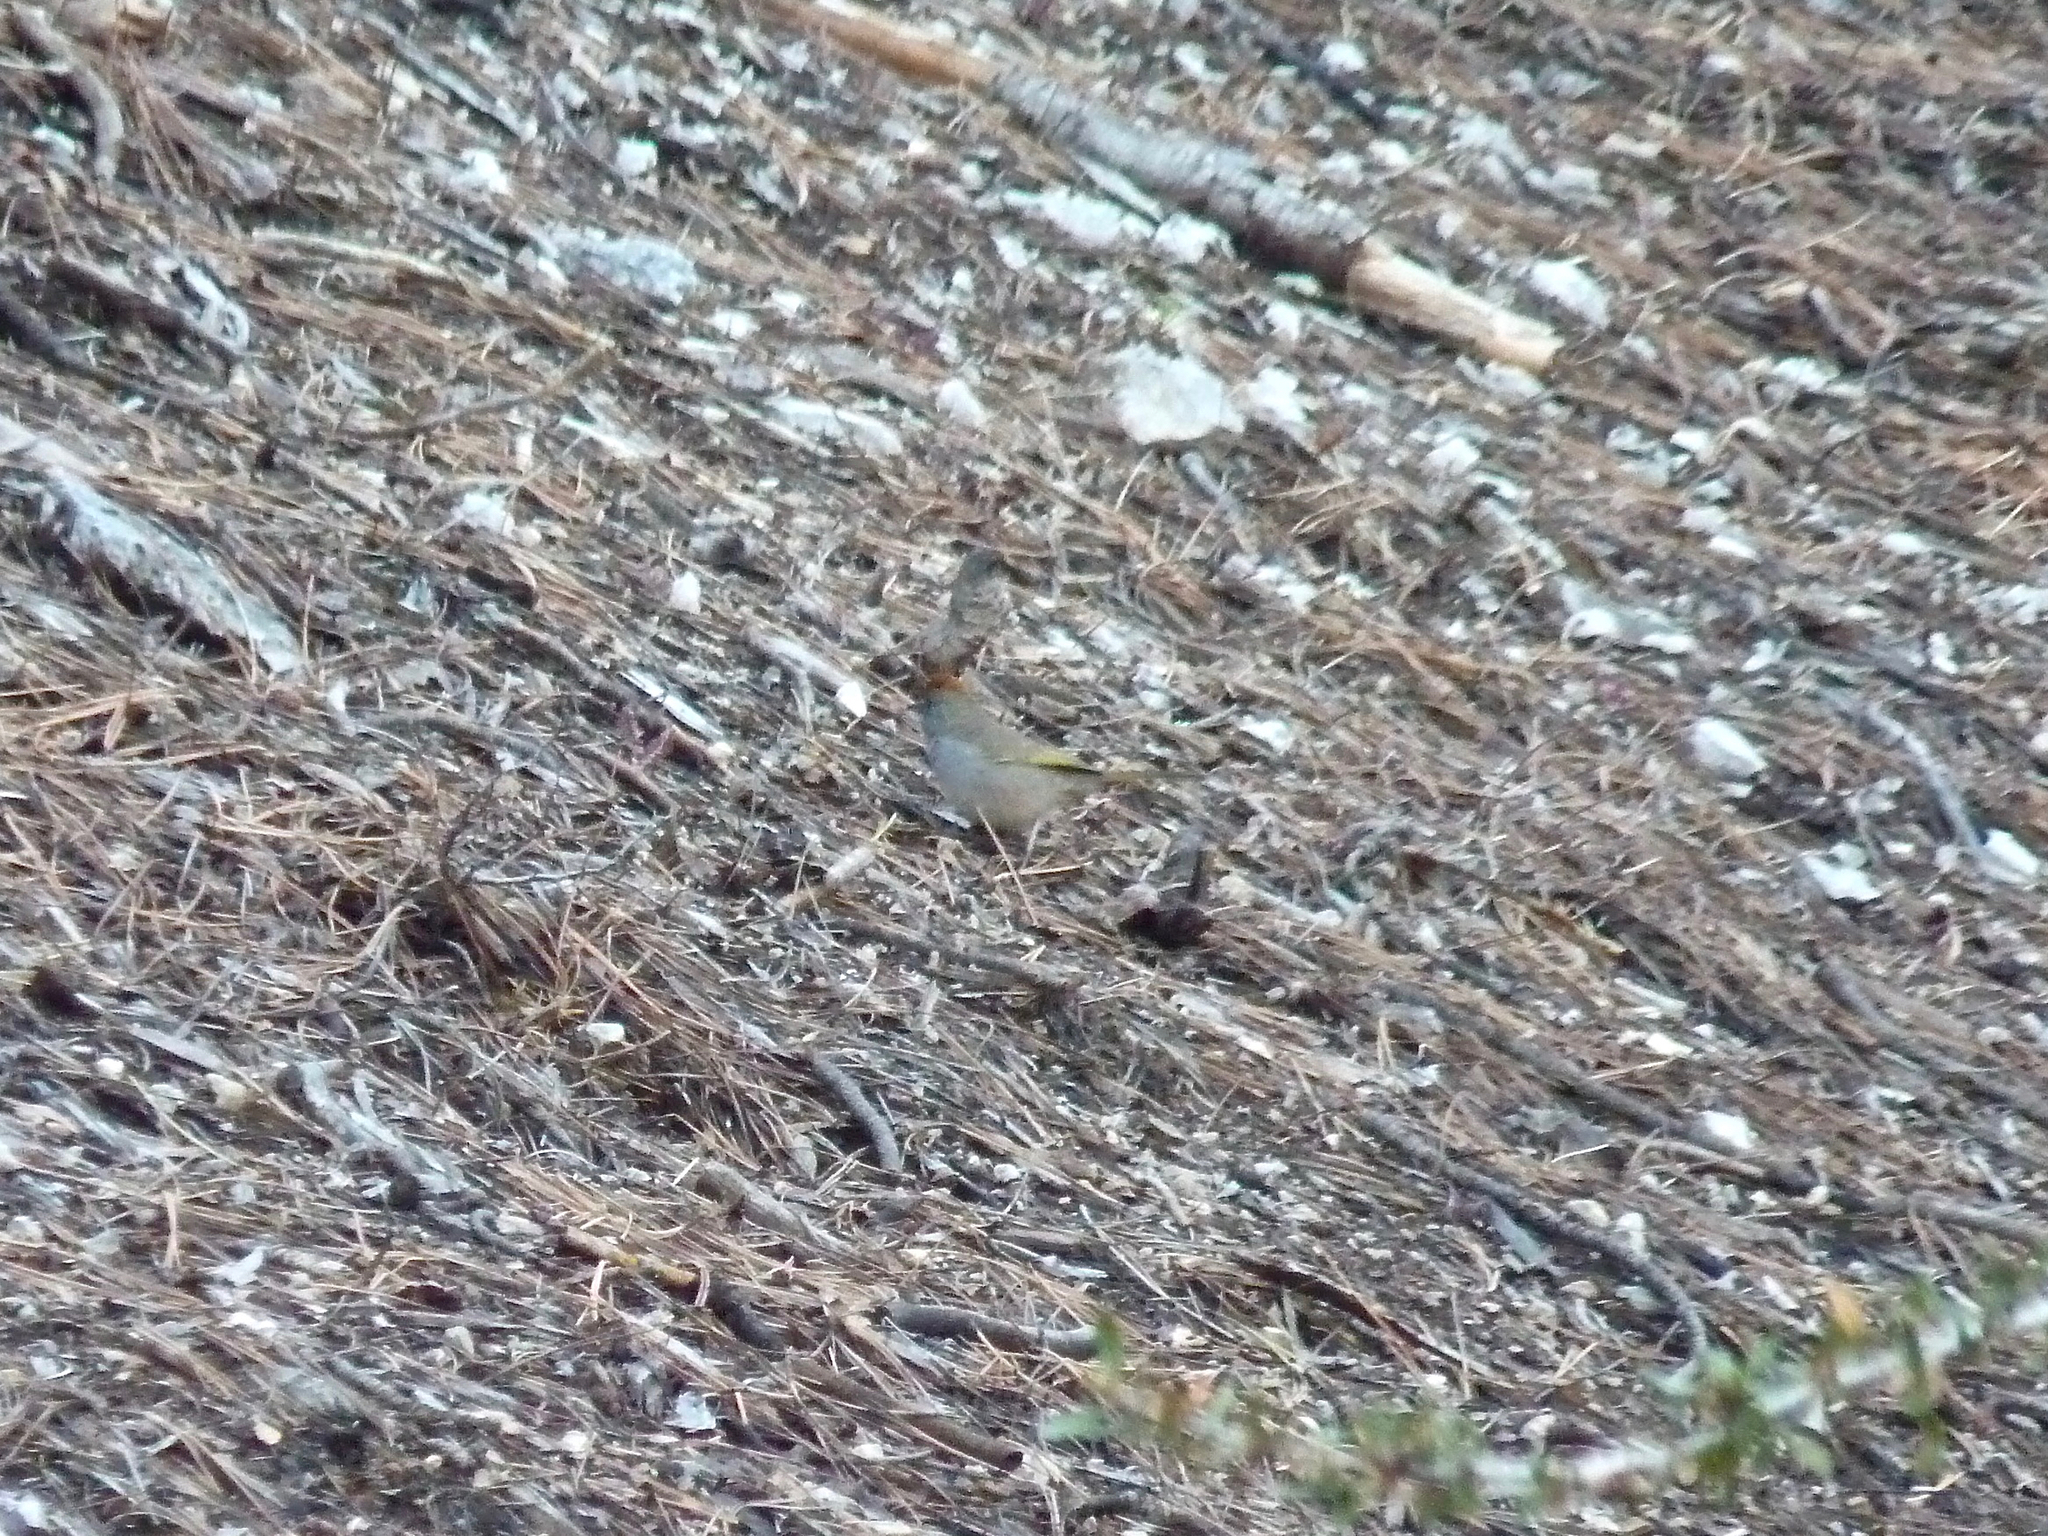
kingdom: Animalia
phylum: Chordata
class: Aves
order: Passeriformes
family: Passerellidae
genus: Pipilo
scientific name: Pipilo chlorurus
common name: Green-tailed towhee
